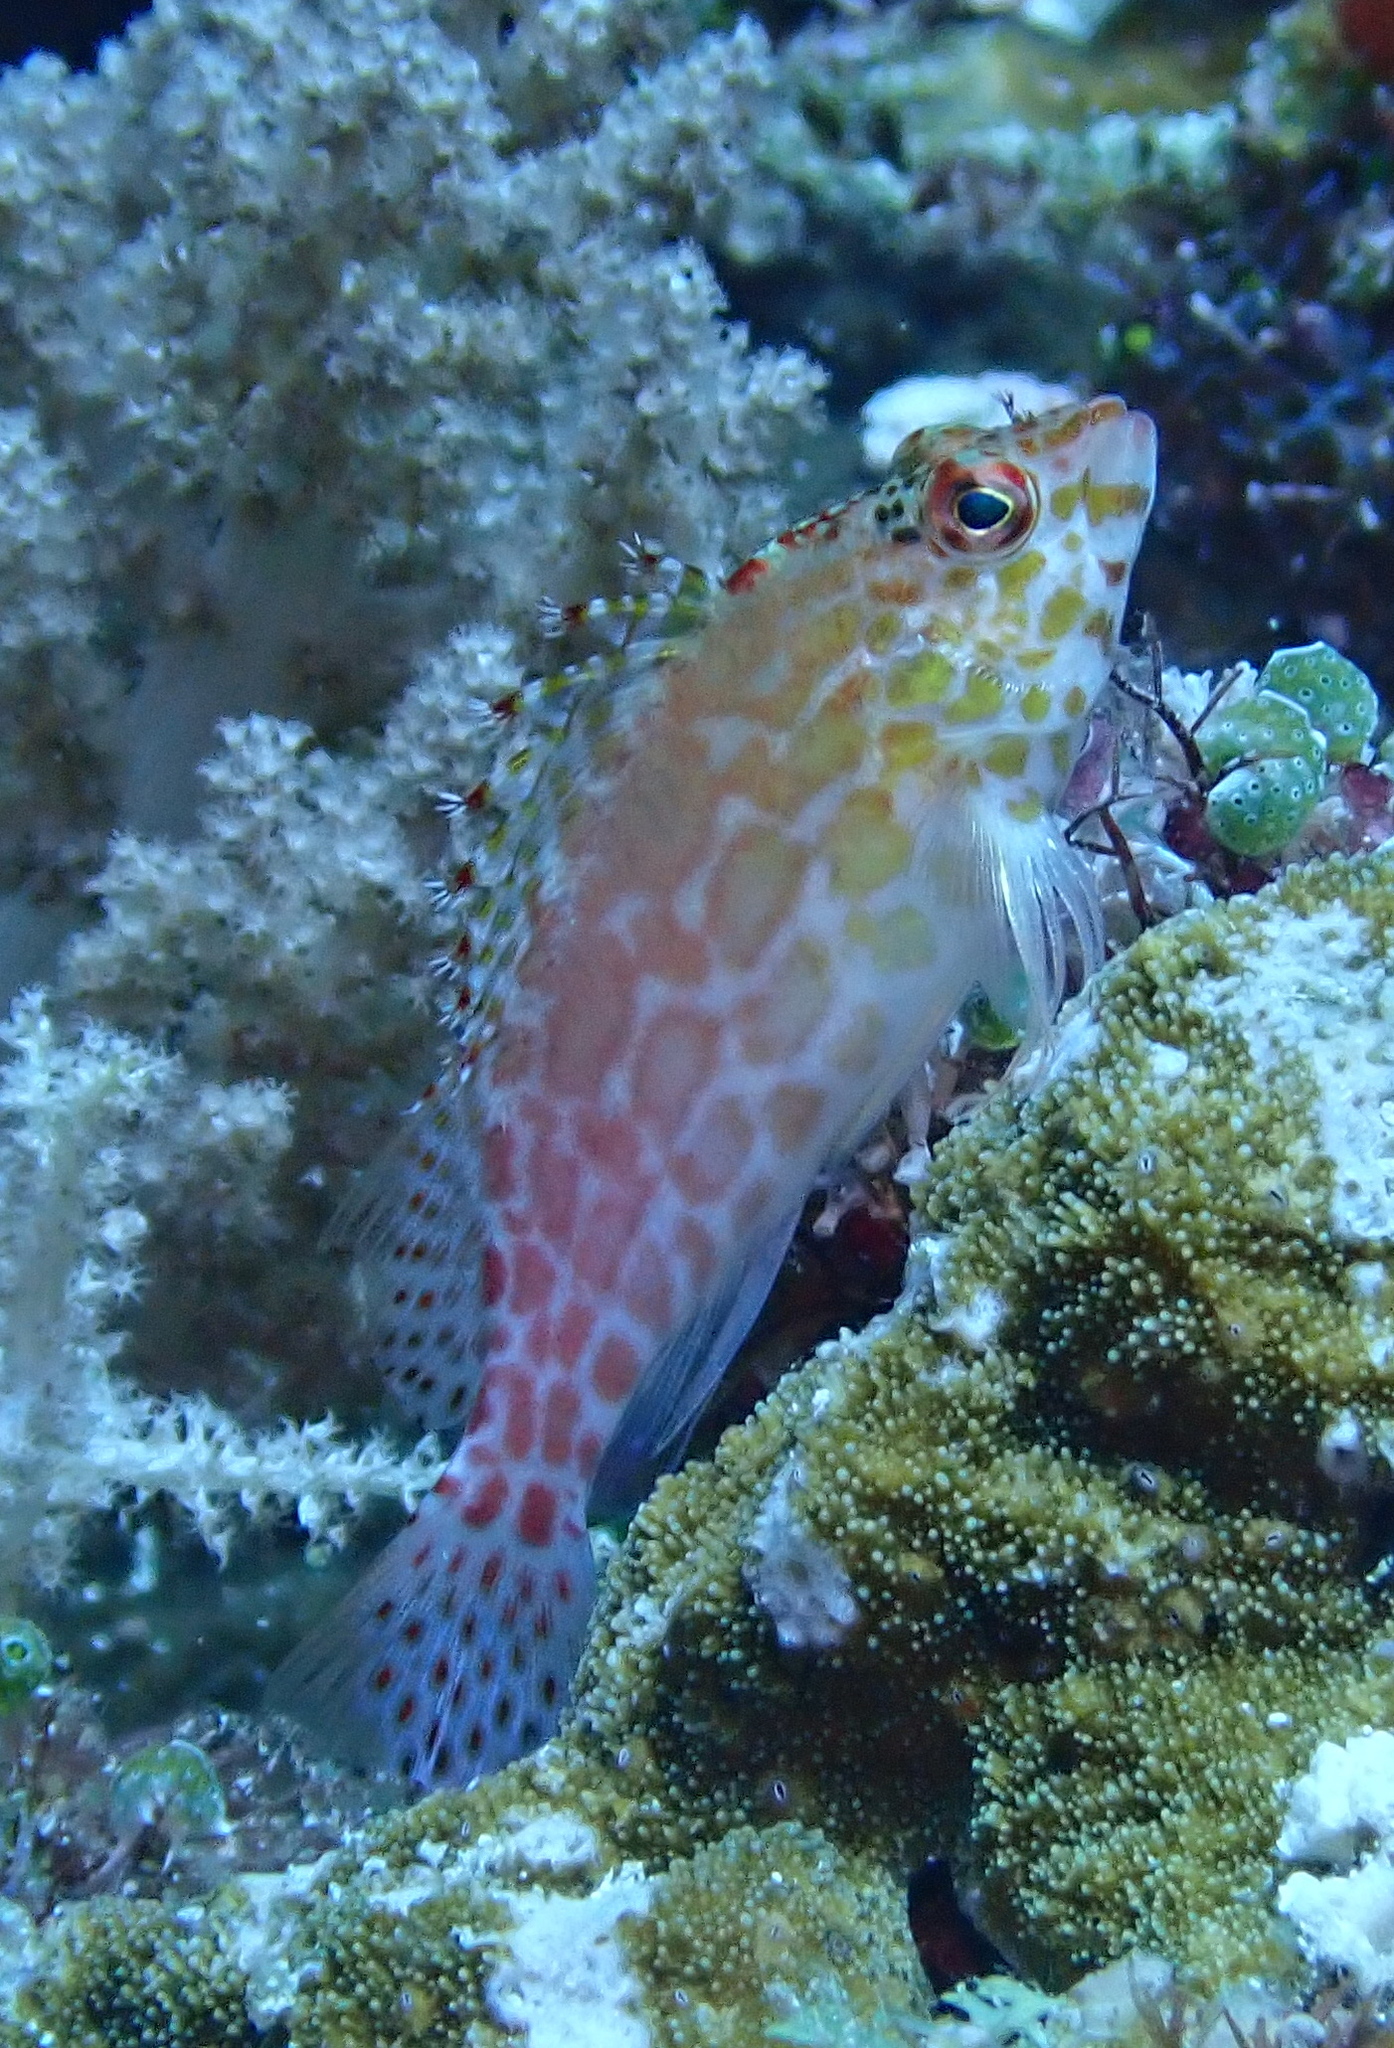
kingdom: Animalia
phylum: Chordata
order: Perciformes
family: Cirrhitidae
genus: Cirrhitichthys
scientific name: Cirrhitichthys oxycephalus
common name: Spotted hawkfish
